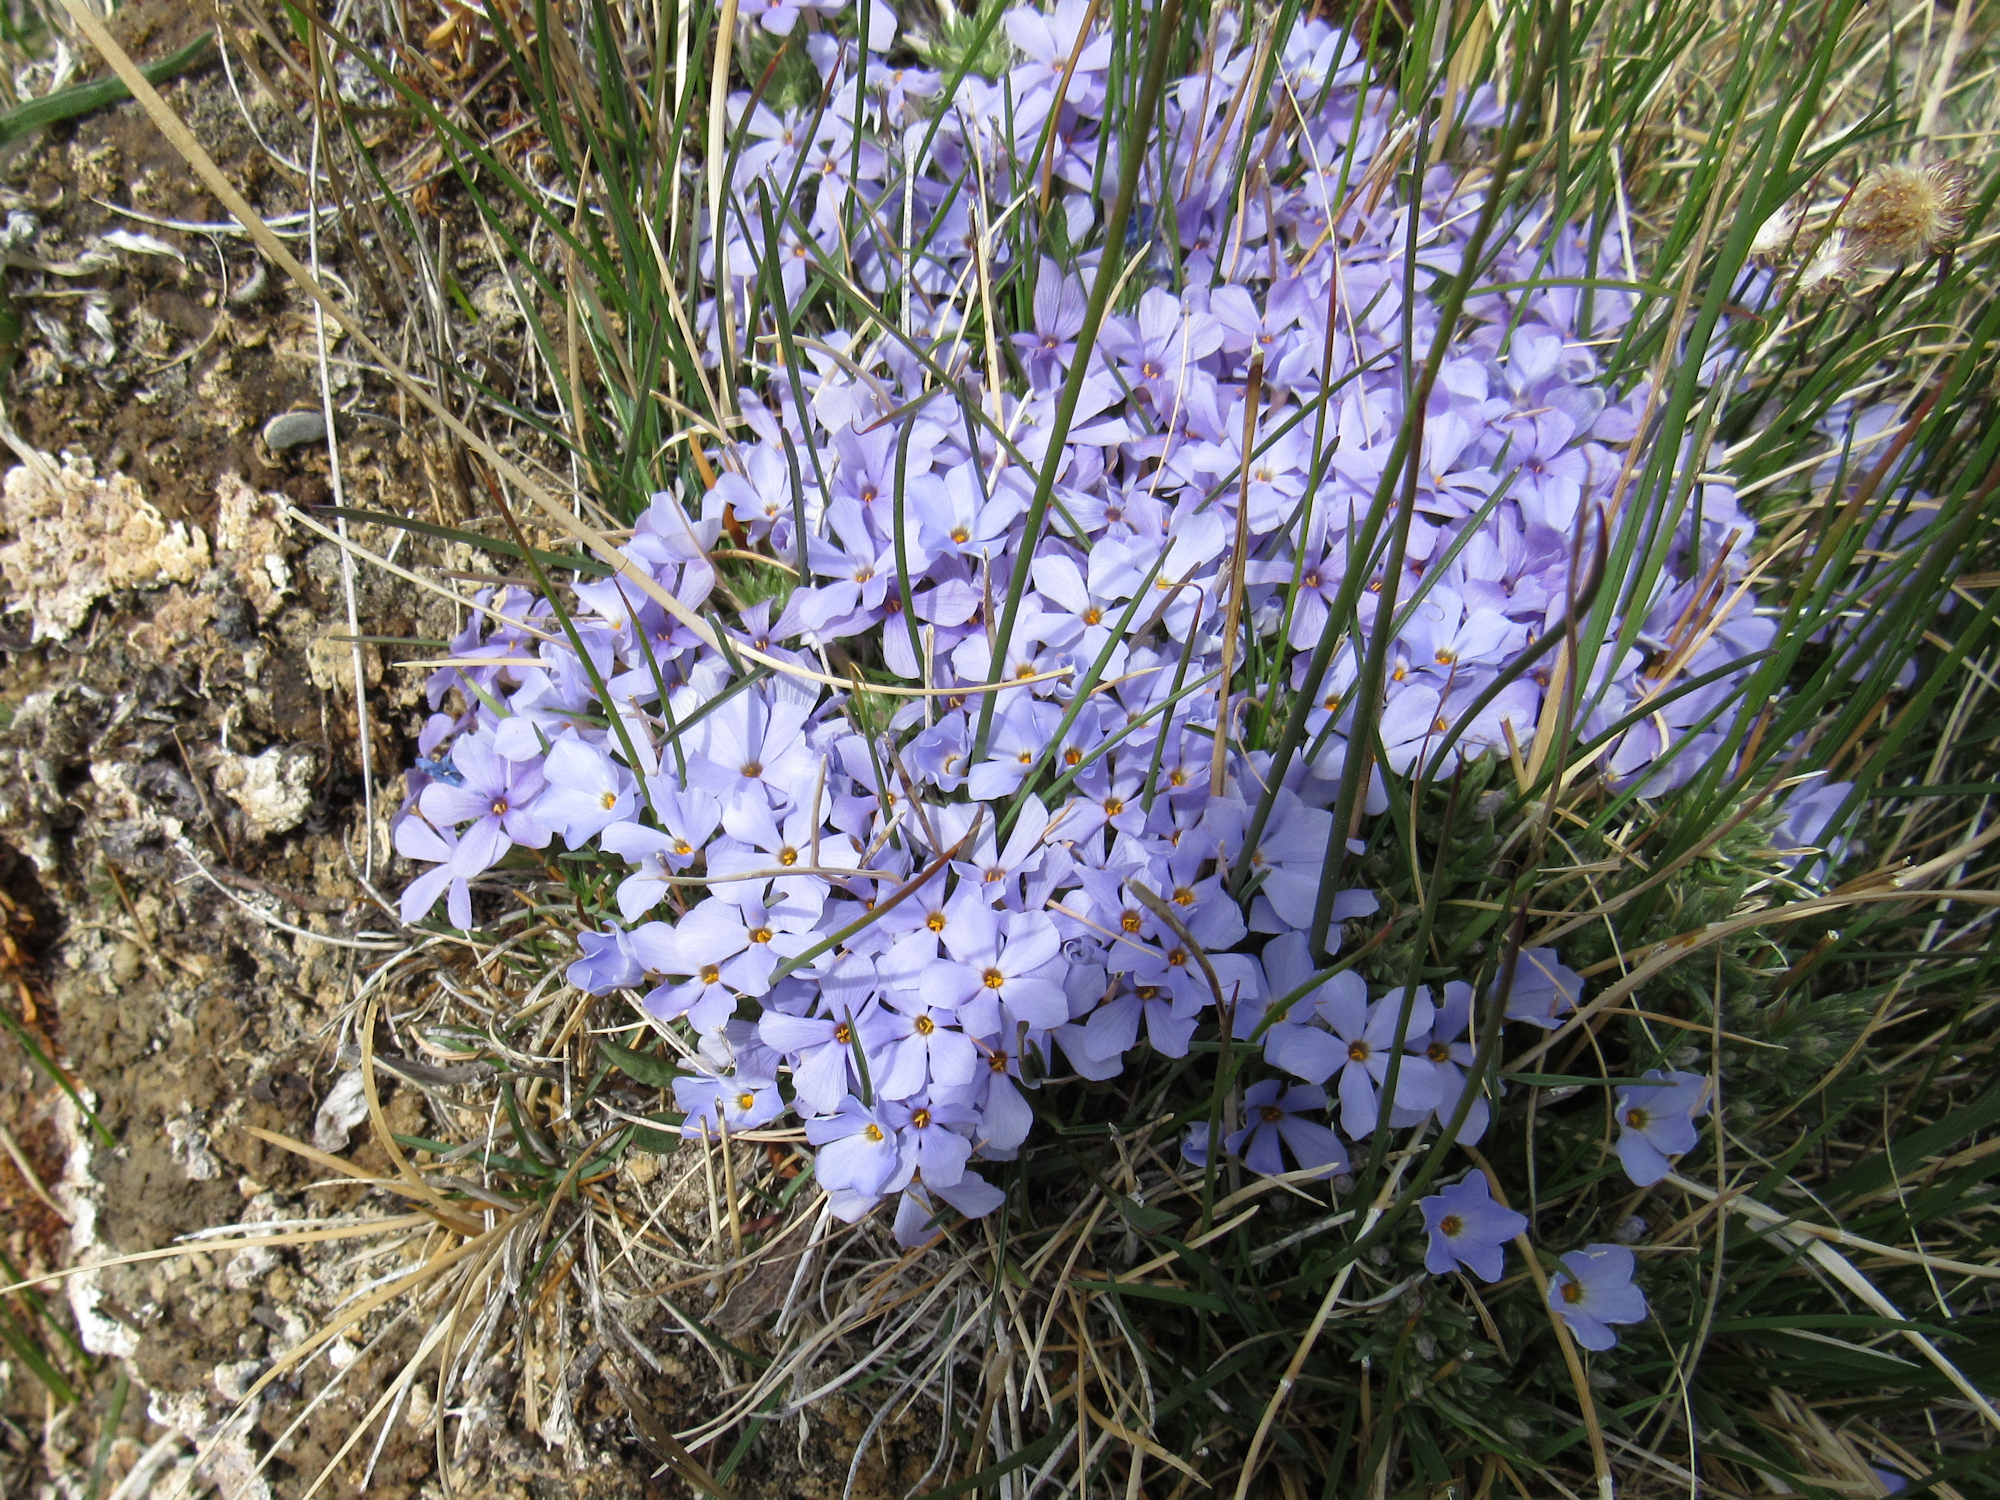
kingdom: Plantae
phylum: Tracheophyta
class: Magnoliopsida
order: Ericales
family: Polemoniaceae
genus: Phlox
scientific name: Phlox multiflora
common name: Rocky mountain phlox
